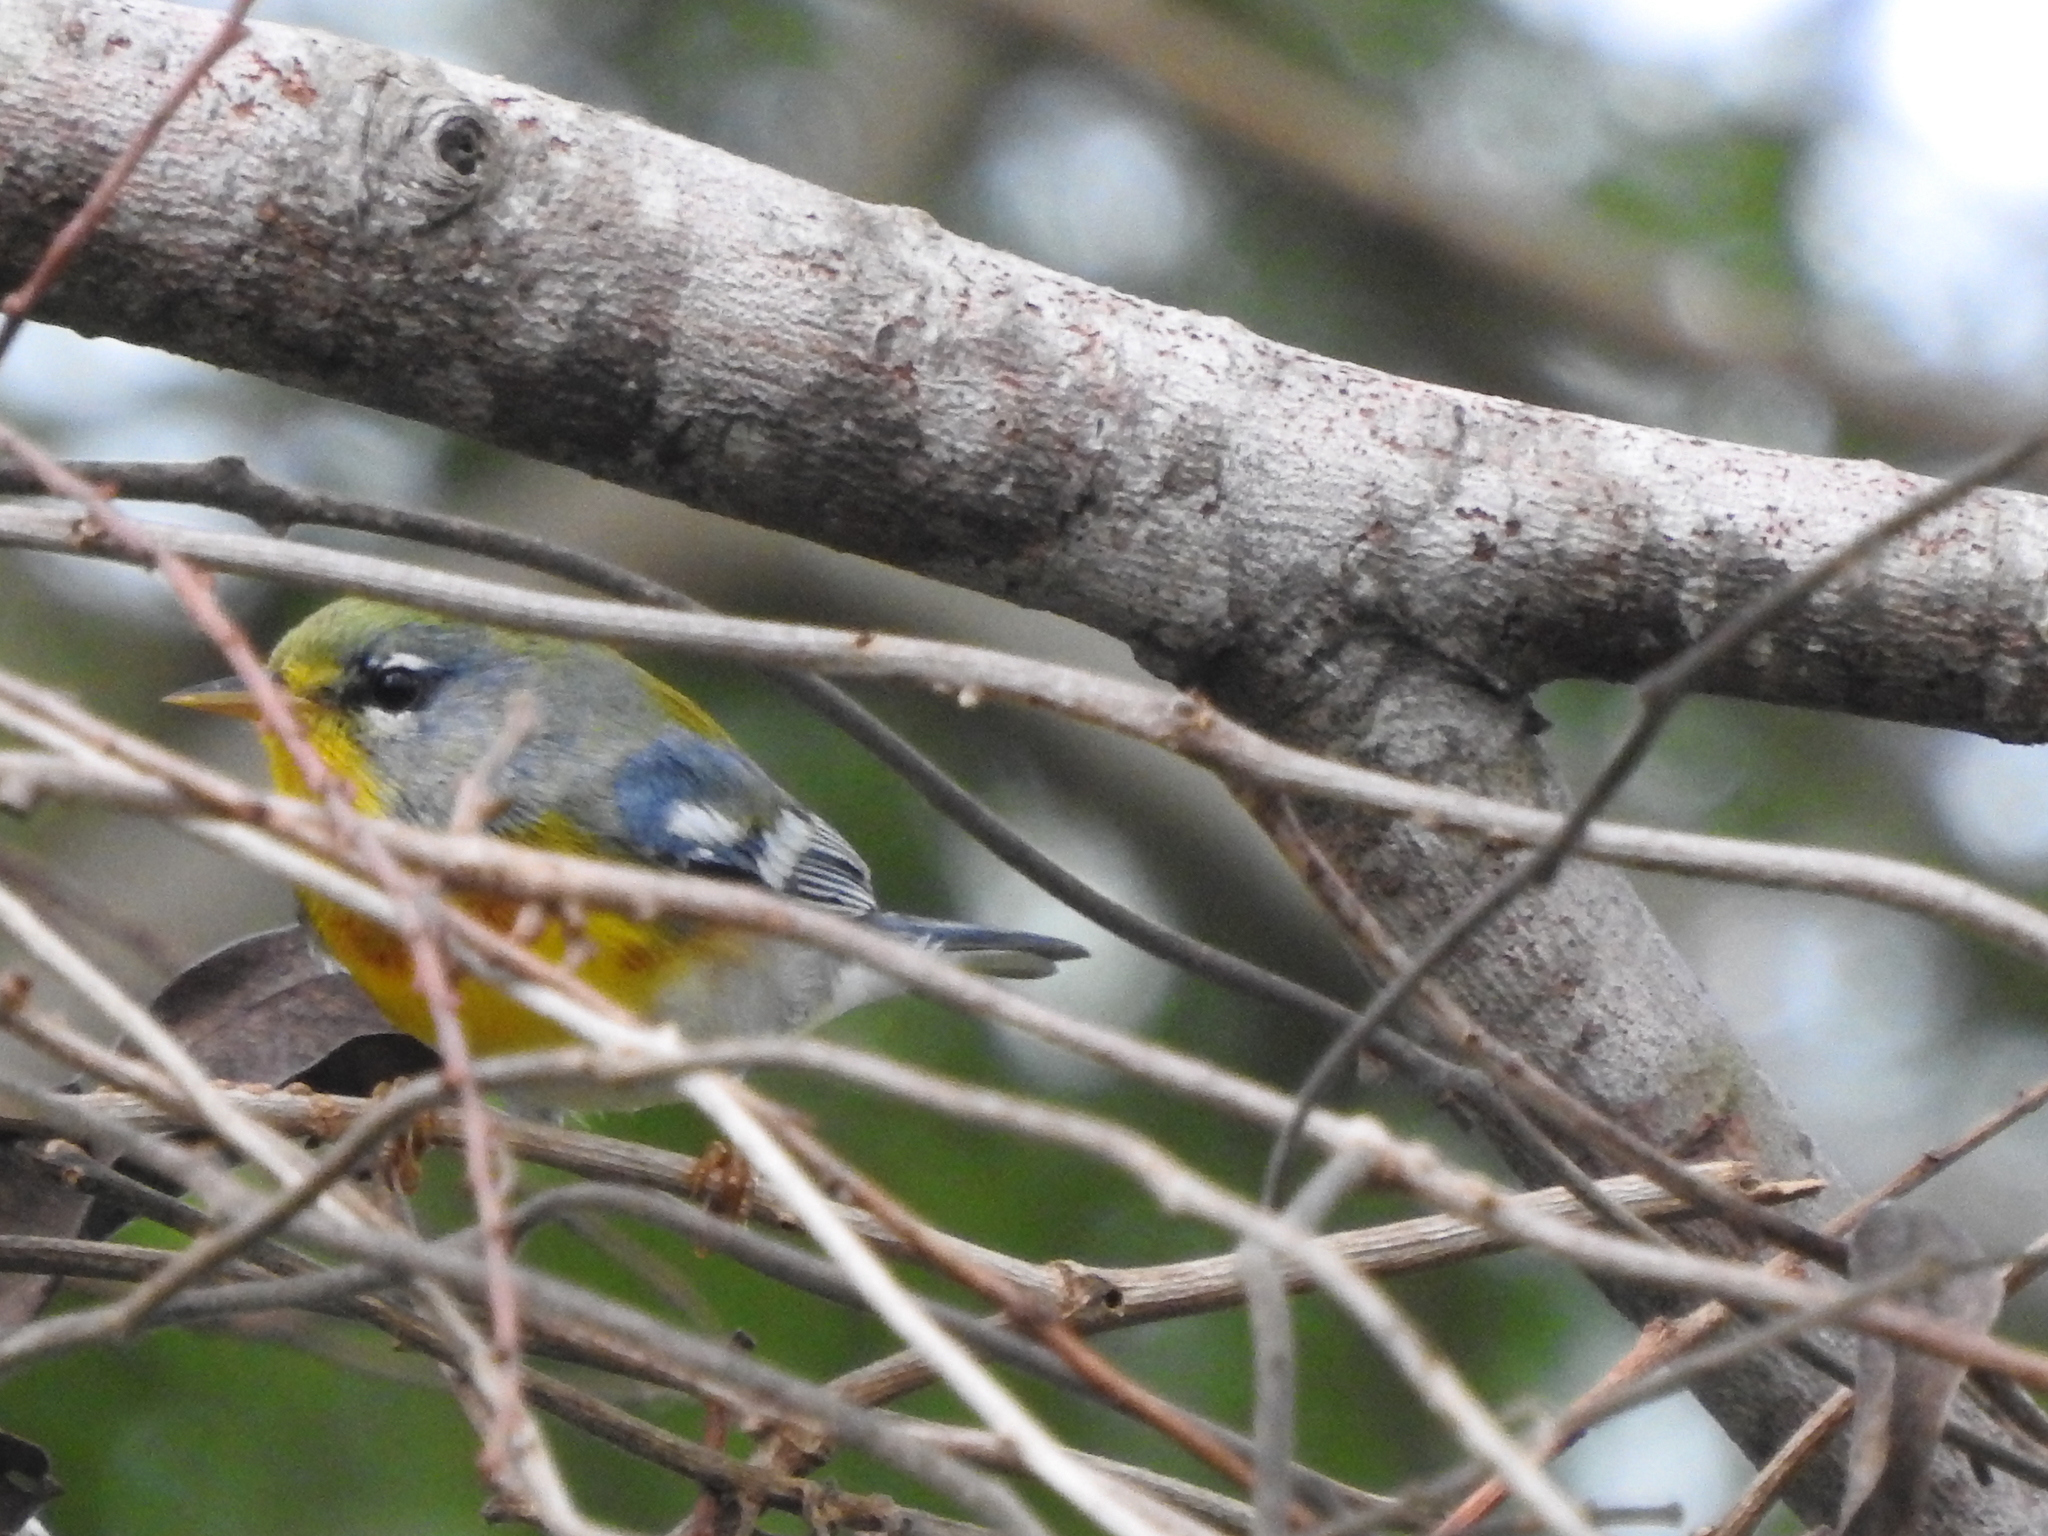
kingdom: Animalia
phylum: Chordata
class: Aves
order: Passeriformes
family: Parulidae
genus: Setophaga
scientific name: Setophaga americana
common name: Northern parula
